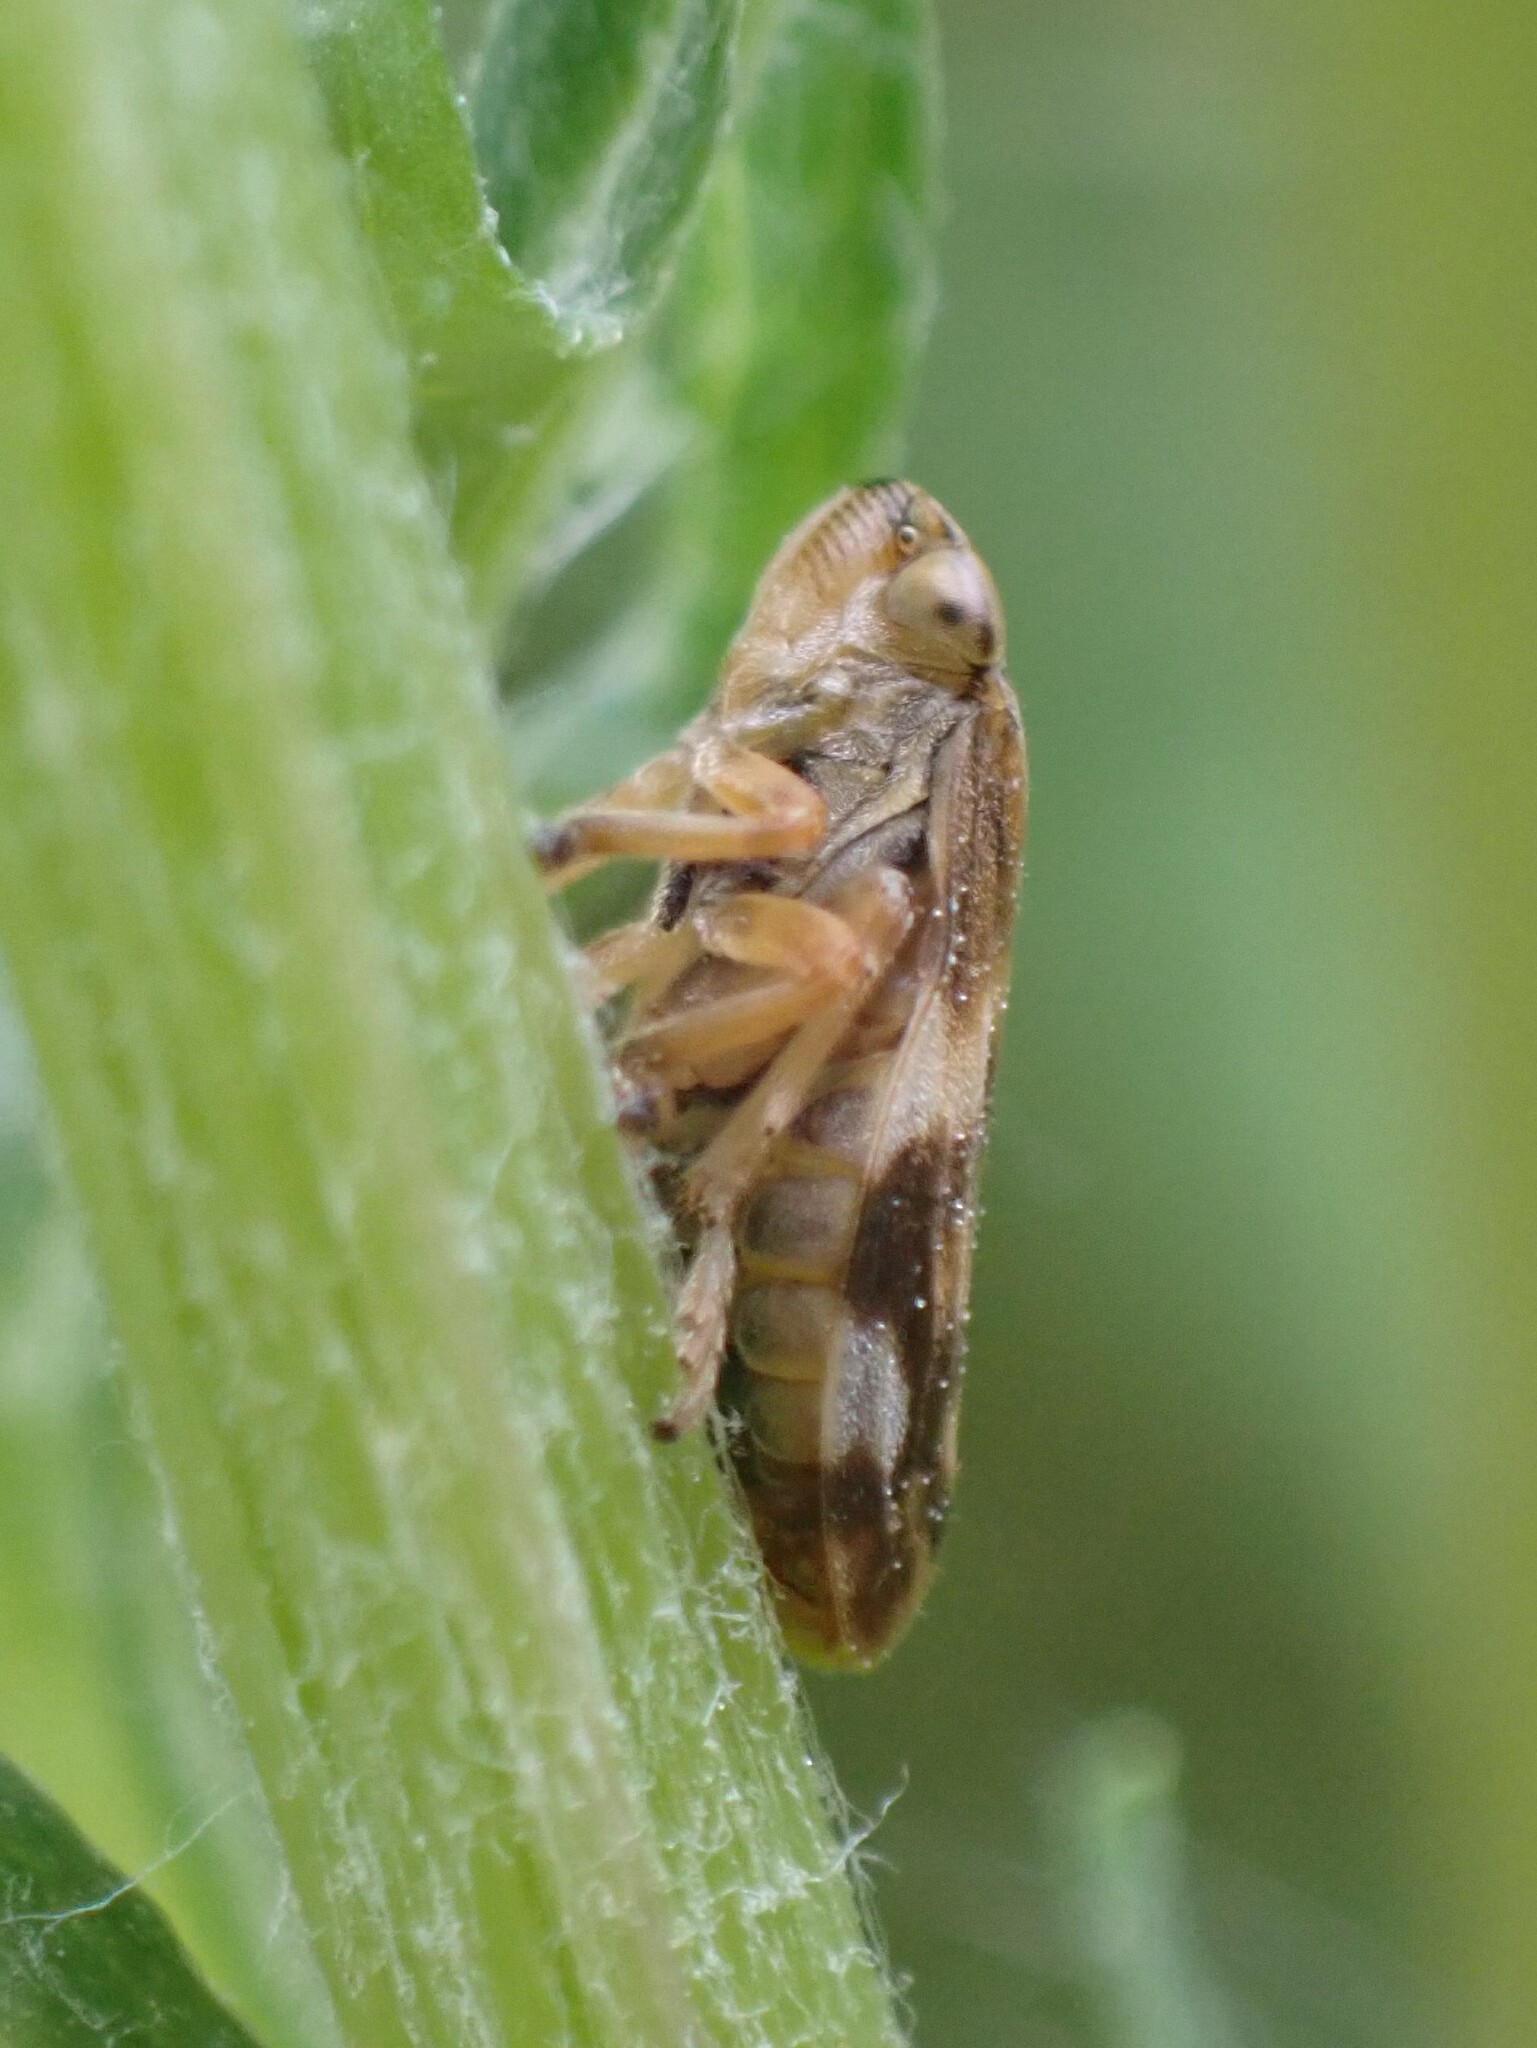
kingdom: Animalia
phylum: Arthropoda
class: Insecta
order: Hemiptera
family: Aphrophoridae
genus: Philaenus
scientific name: Philaenus spumarius
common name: Meadow spittlebug
